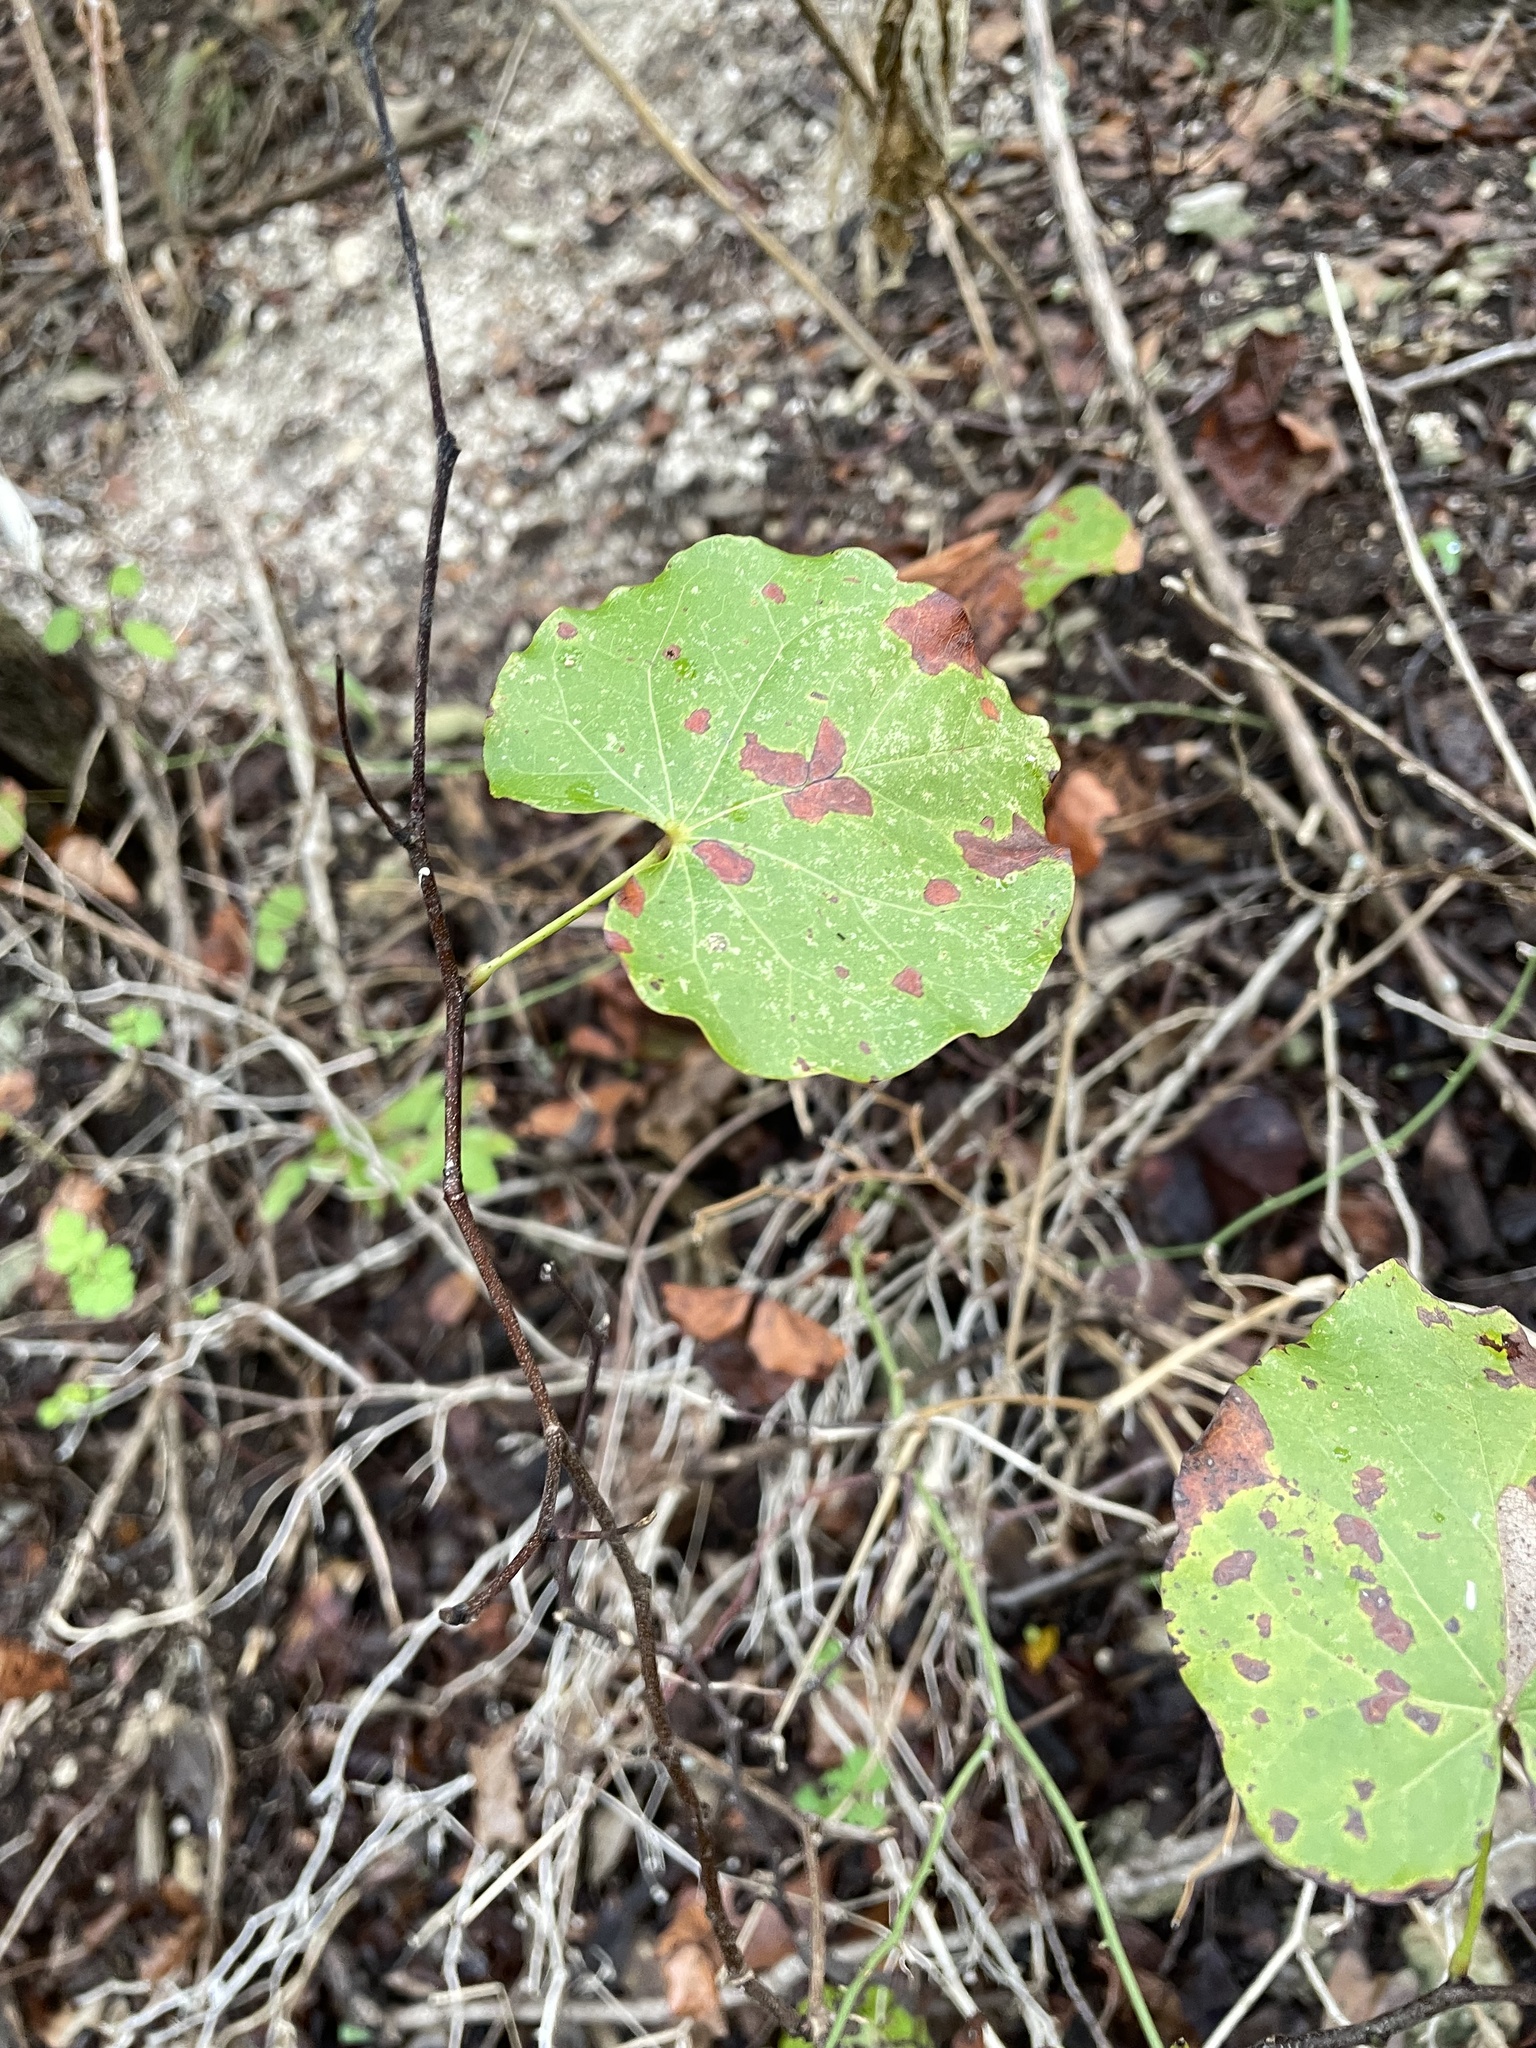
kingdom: Plantae
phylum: Tracheophyta
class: Magnoliopsida
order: Fabales
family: Fabaceae
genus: Cercis
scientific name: Cercis canadensis
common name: Eastern redbud
